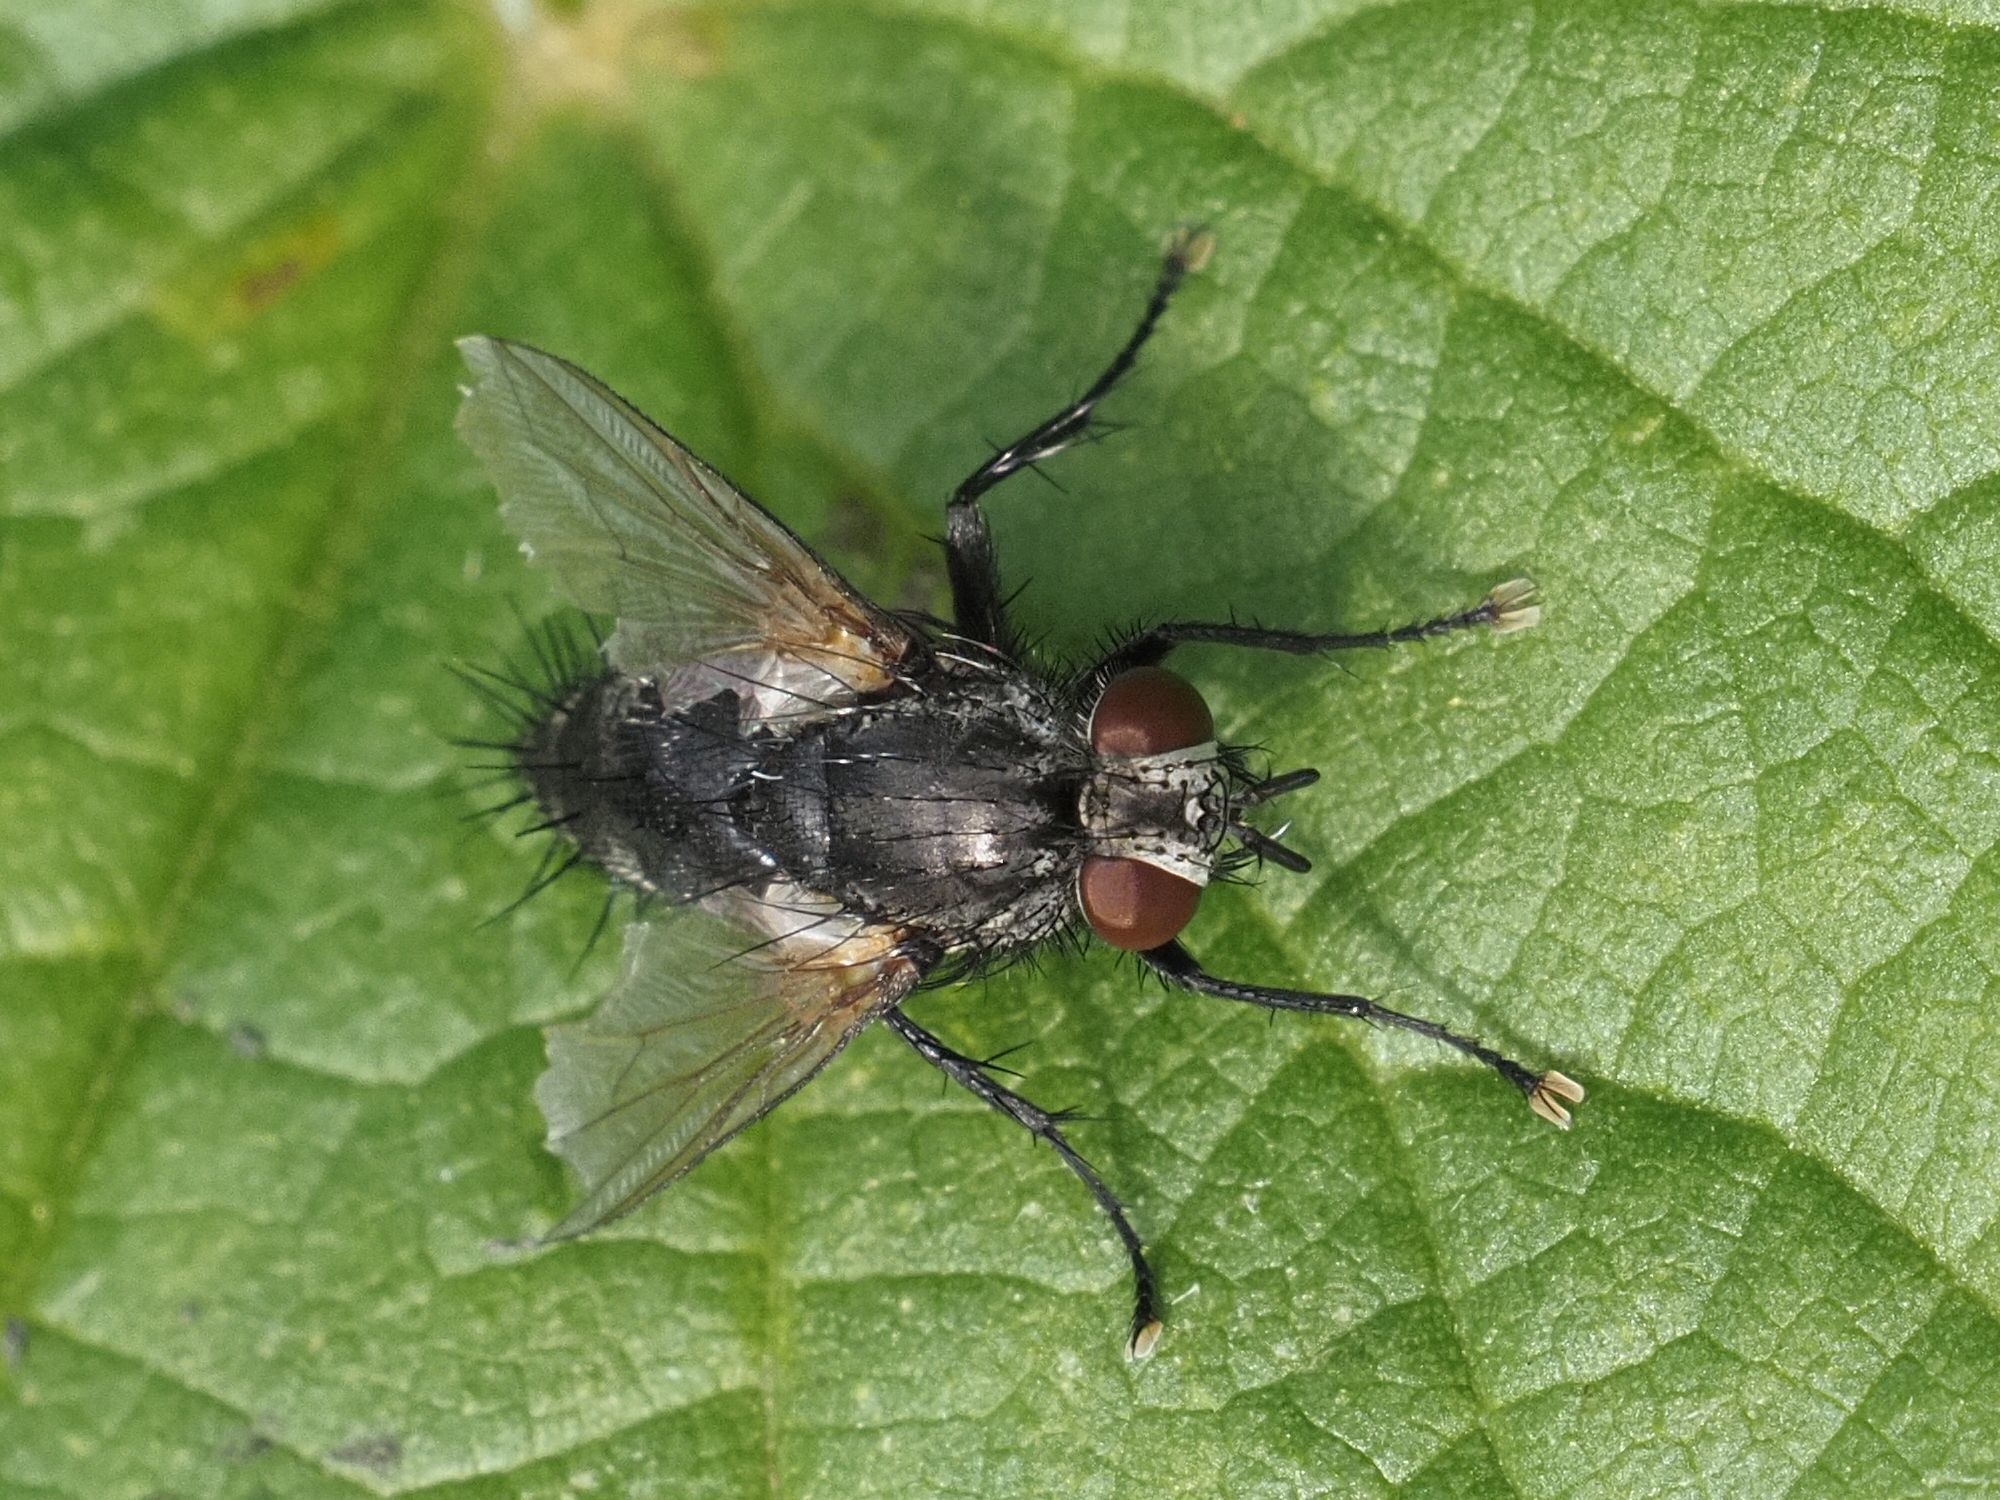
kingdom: Animalia
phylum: Arthropoda
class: Insecta
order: Diptera
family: Tachinidae
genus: Voria
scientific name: Voria ruralis
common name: Parasitic fly
